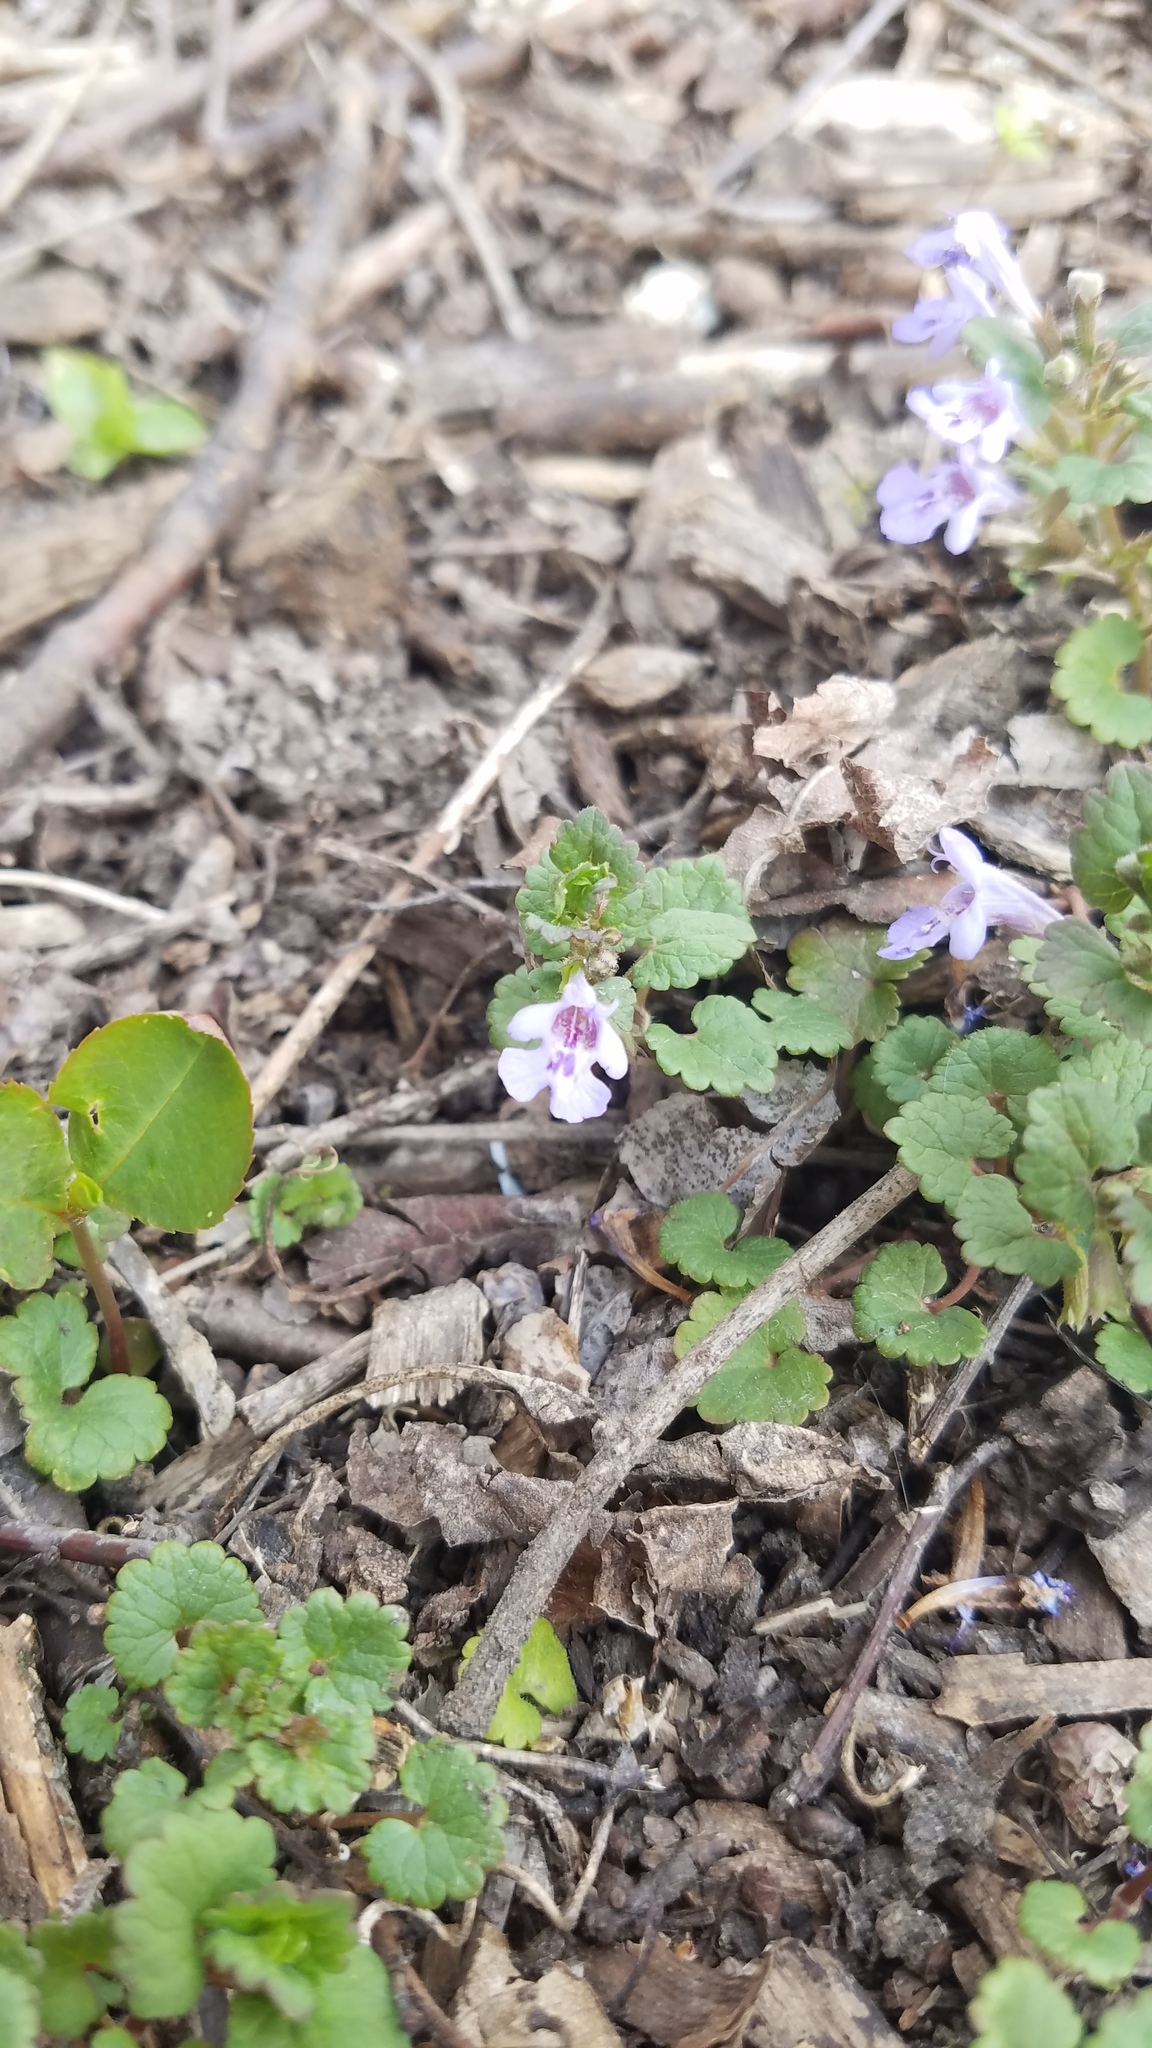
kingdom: Plantae
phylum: Tracheophyta
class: Magnoliopsida
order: Lamiales
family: Lamiaceae
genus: Glechoma
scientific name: Glechoma hederacea
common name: Ground ivy
